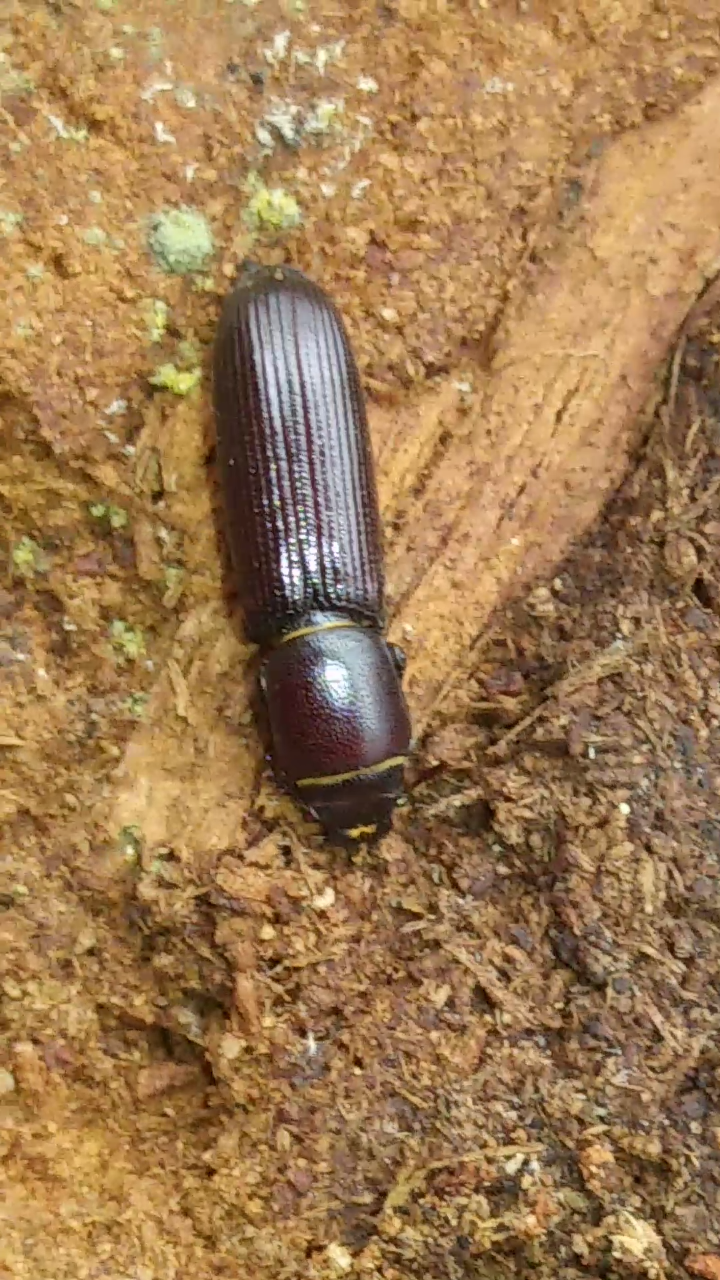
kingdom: Animalia
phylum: Arthropoda
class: Insecta
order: Coleoptera
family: Trogossitidae
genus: Airora
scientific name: Airora cylindrica
